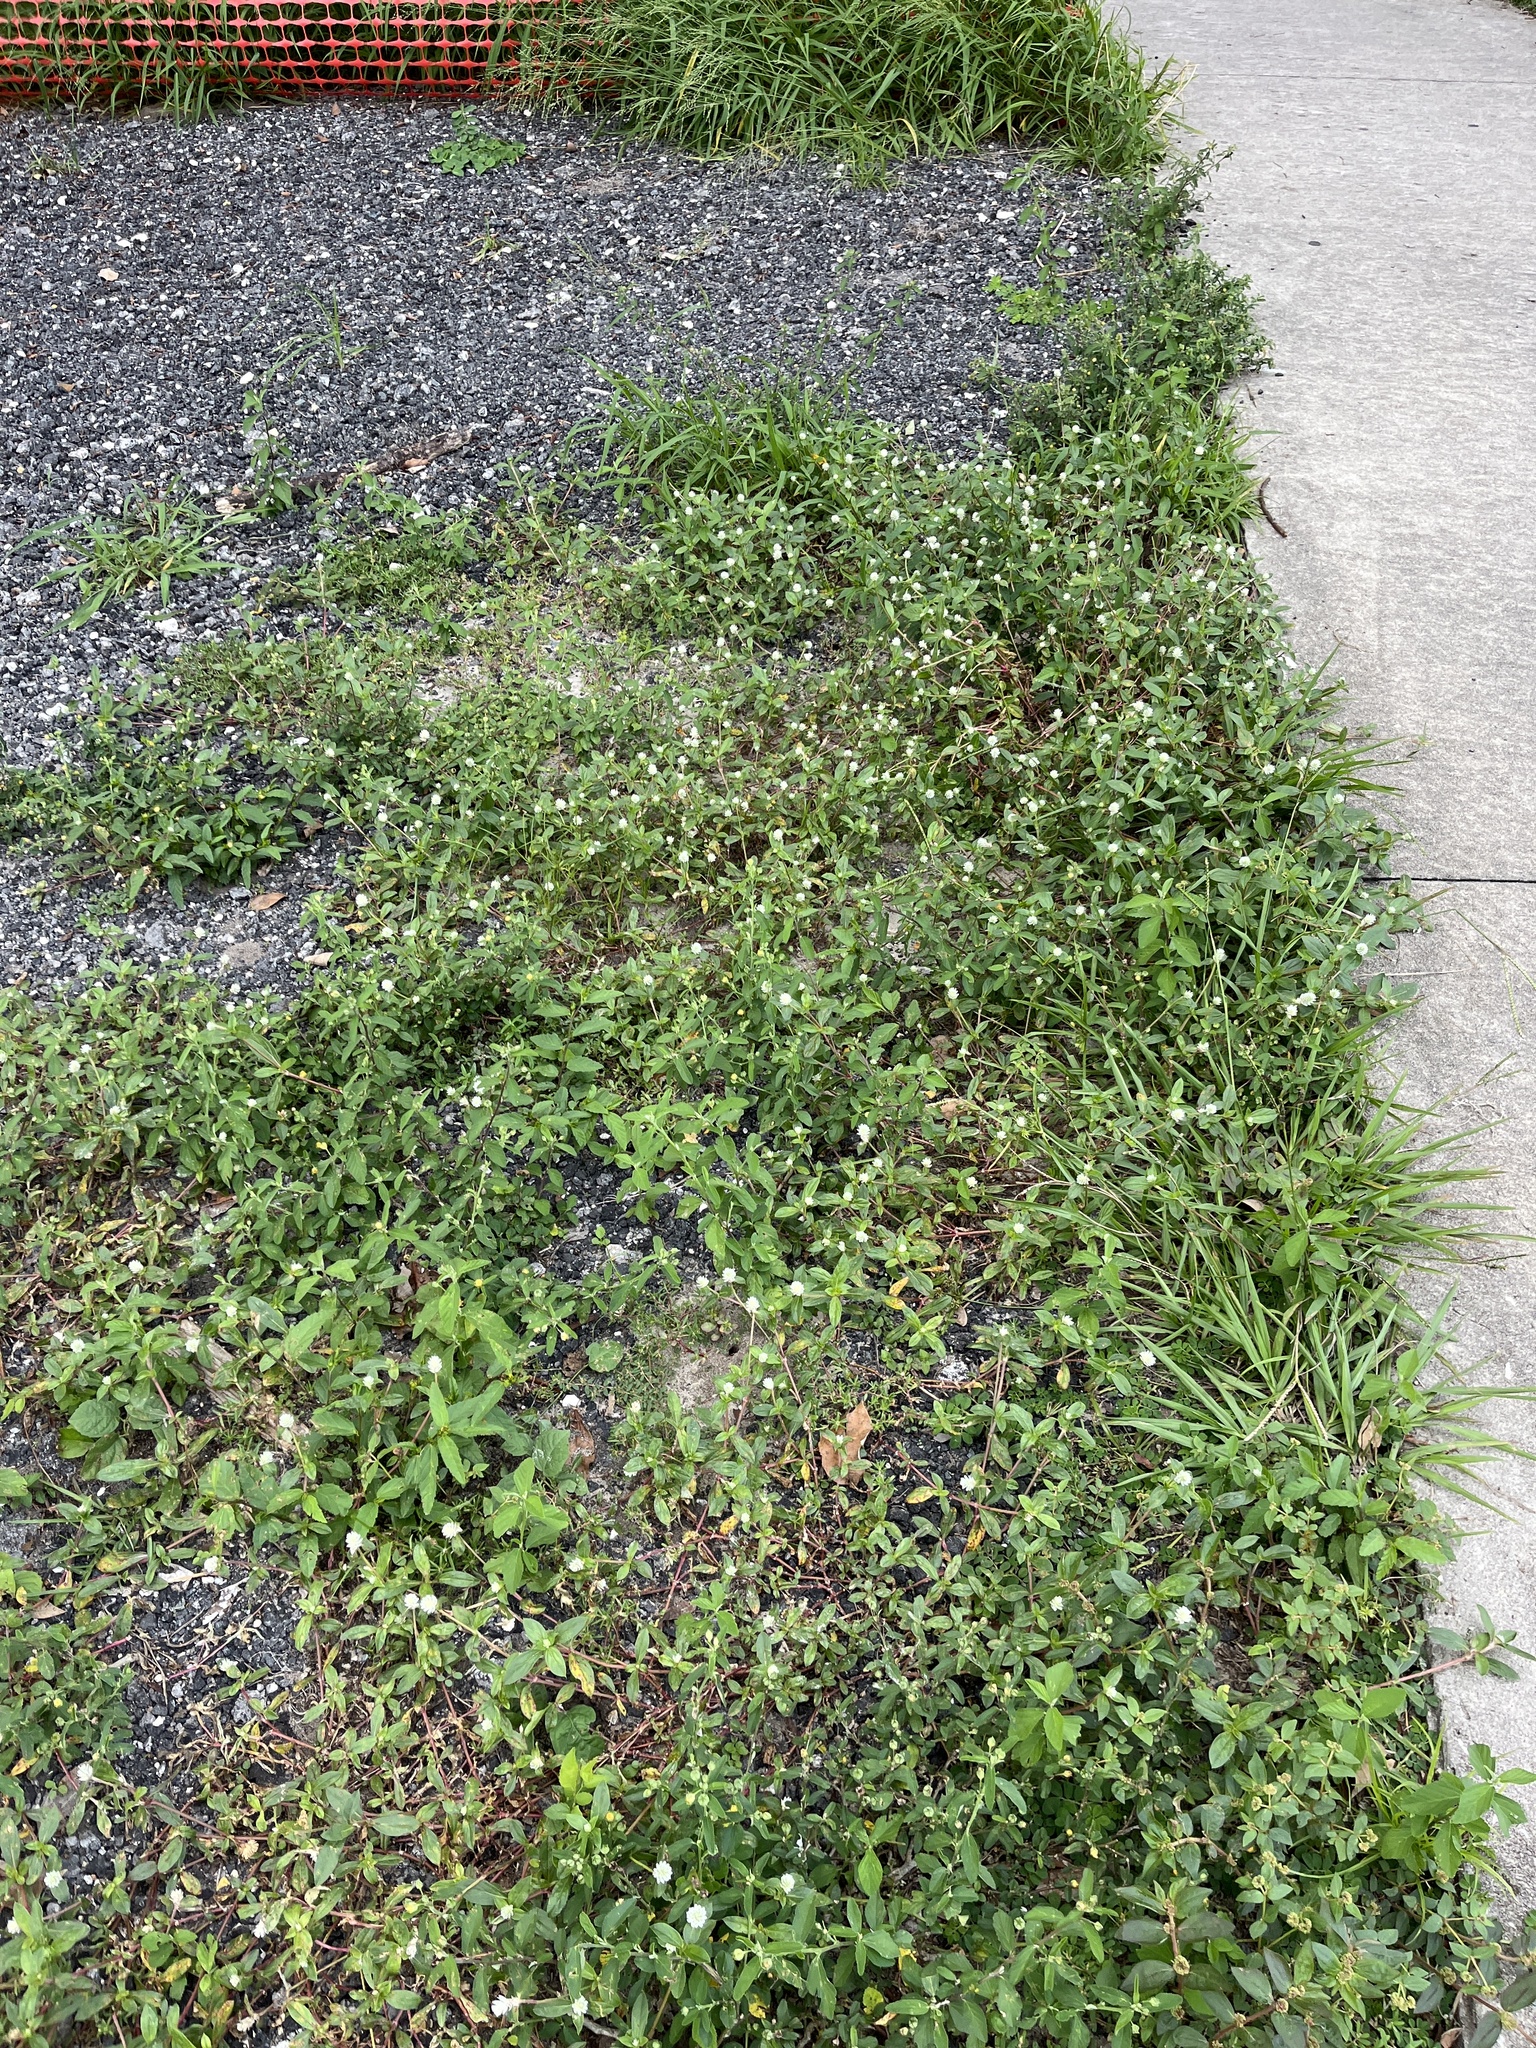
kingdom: Plantae
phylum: Tracheophyta
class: Magnoliopsida
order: Caryophyllales
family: Amaranthaceae
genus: Gomphrena
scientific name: Gomphrena serrata
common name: Arrasa con todo
